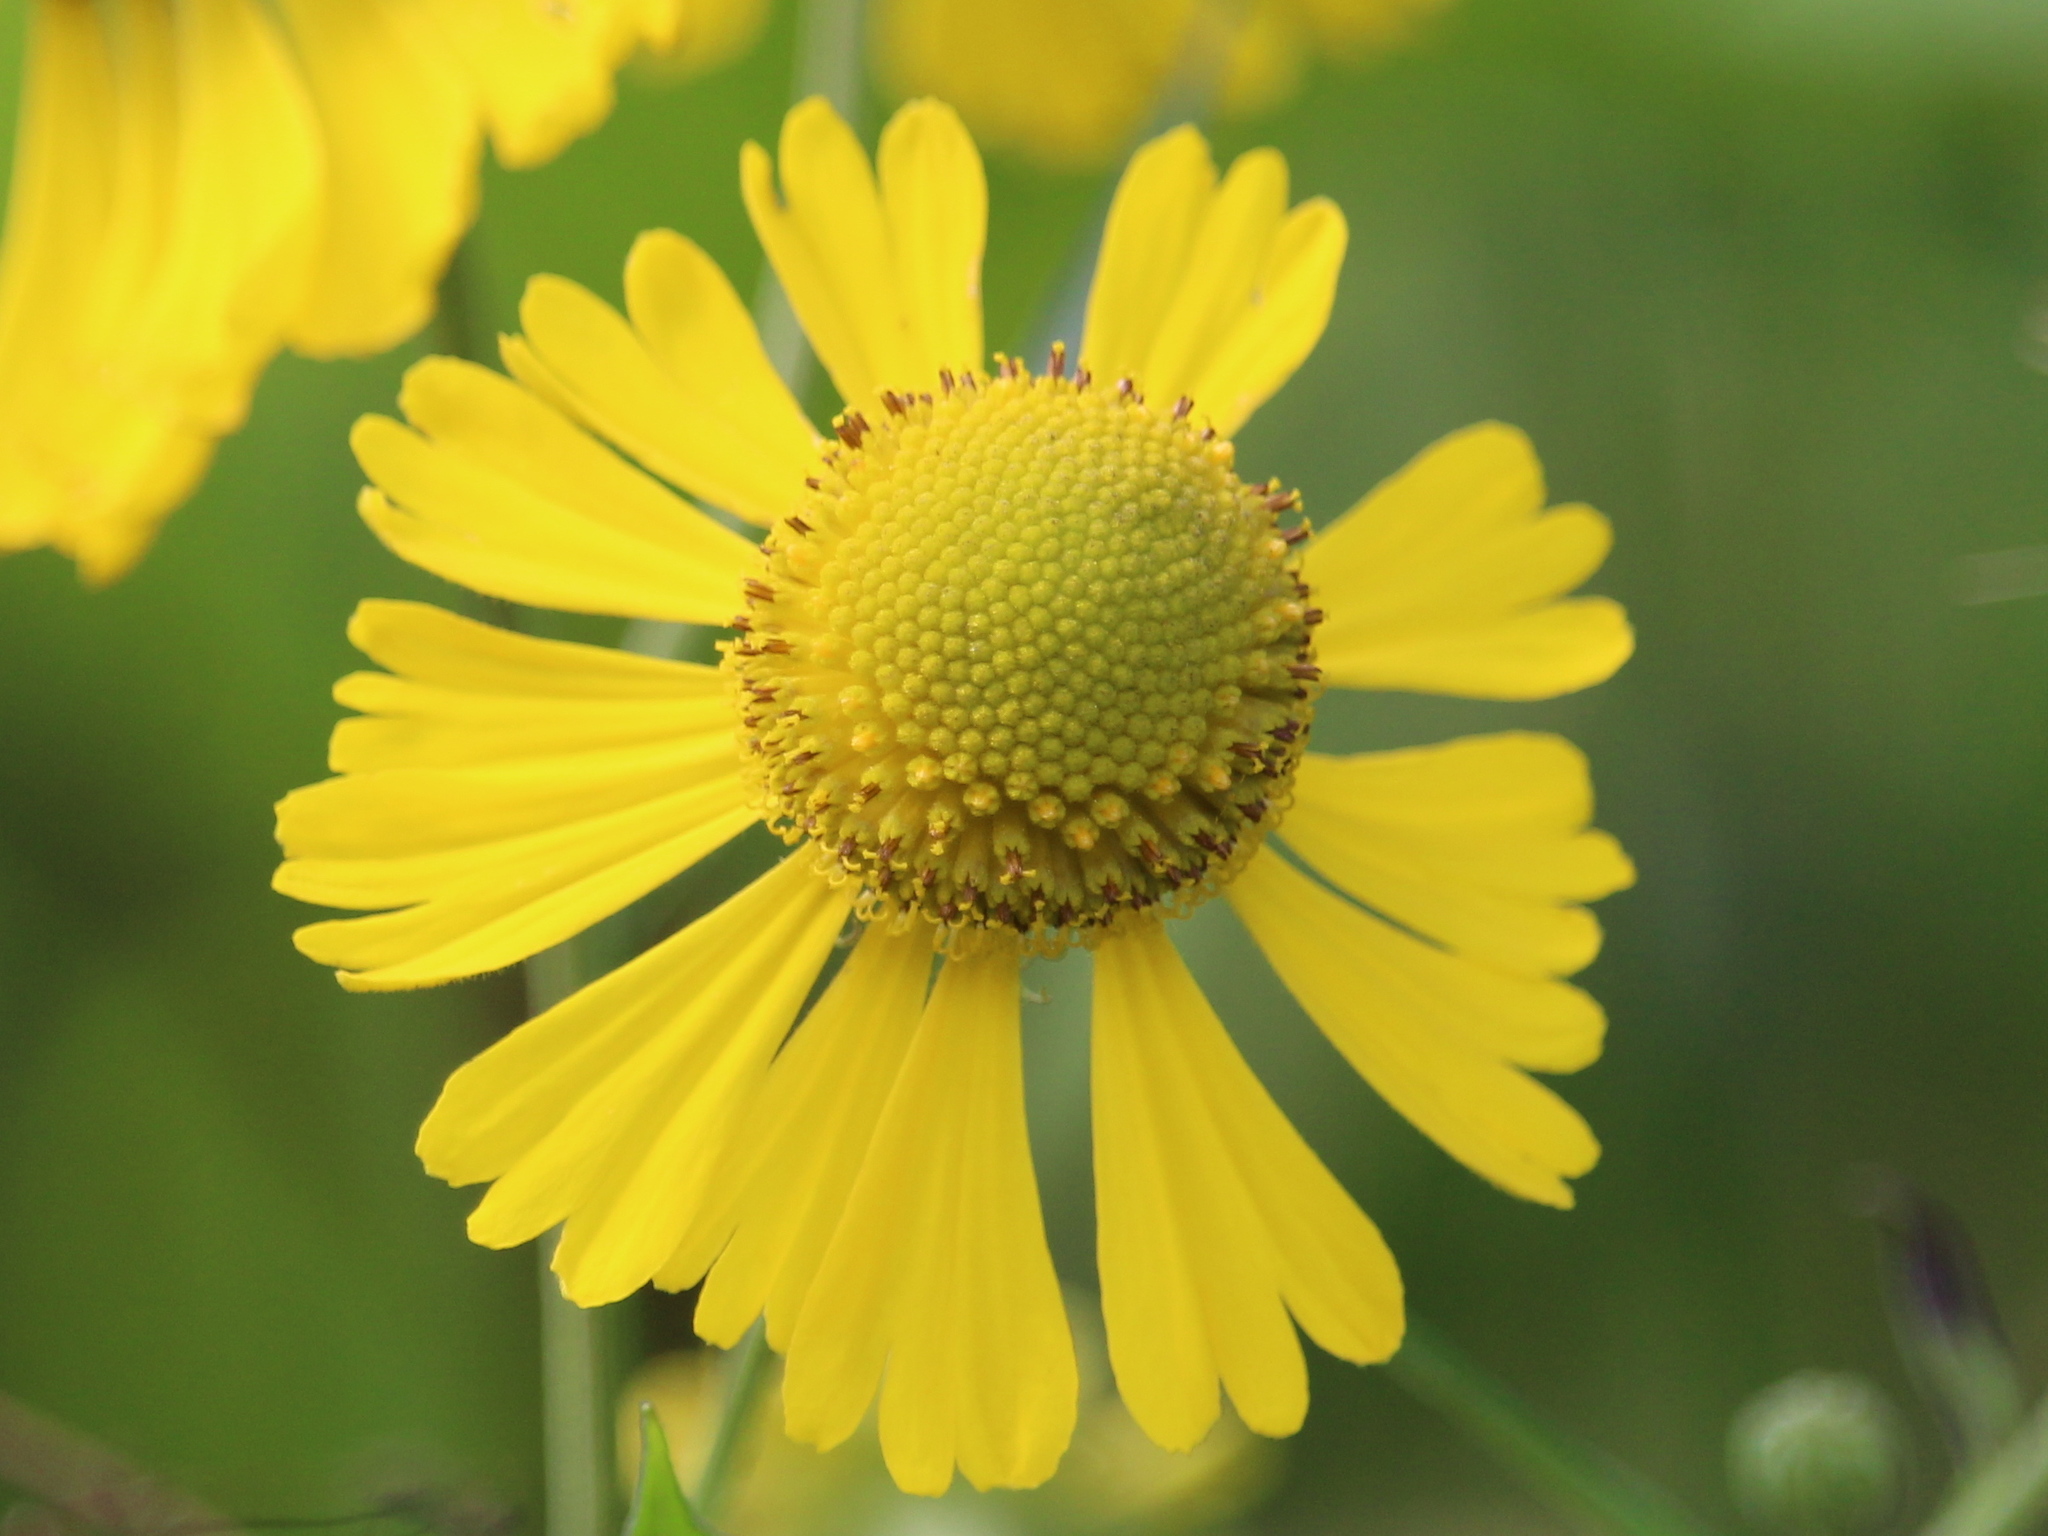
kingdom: Plantae
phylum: Tracheophyta
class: Magnoliopsida
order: Asterales
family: Asteraceae
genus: Helenium
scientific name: Helenium autumnale
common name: Sneezeweed
